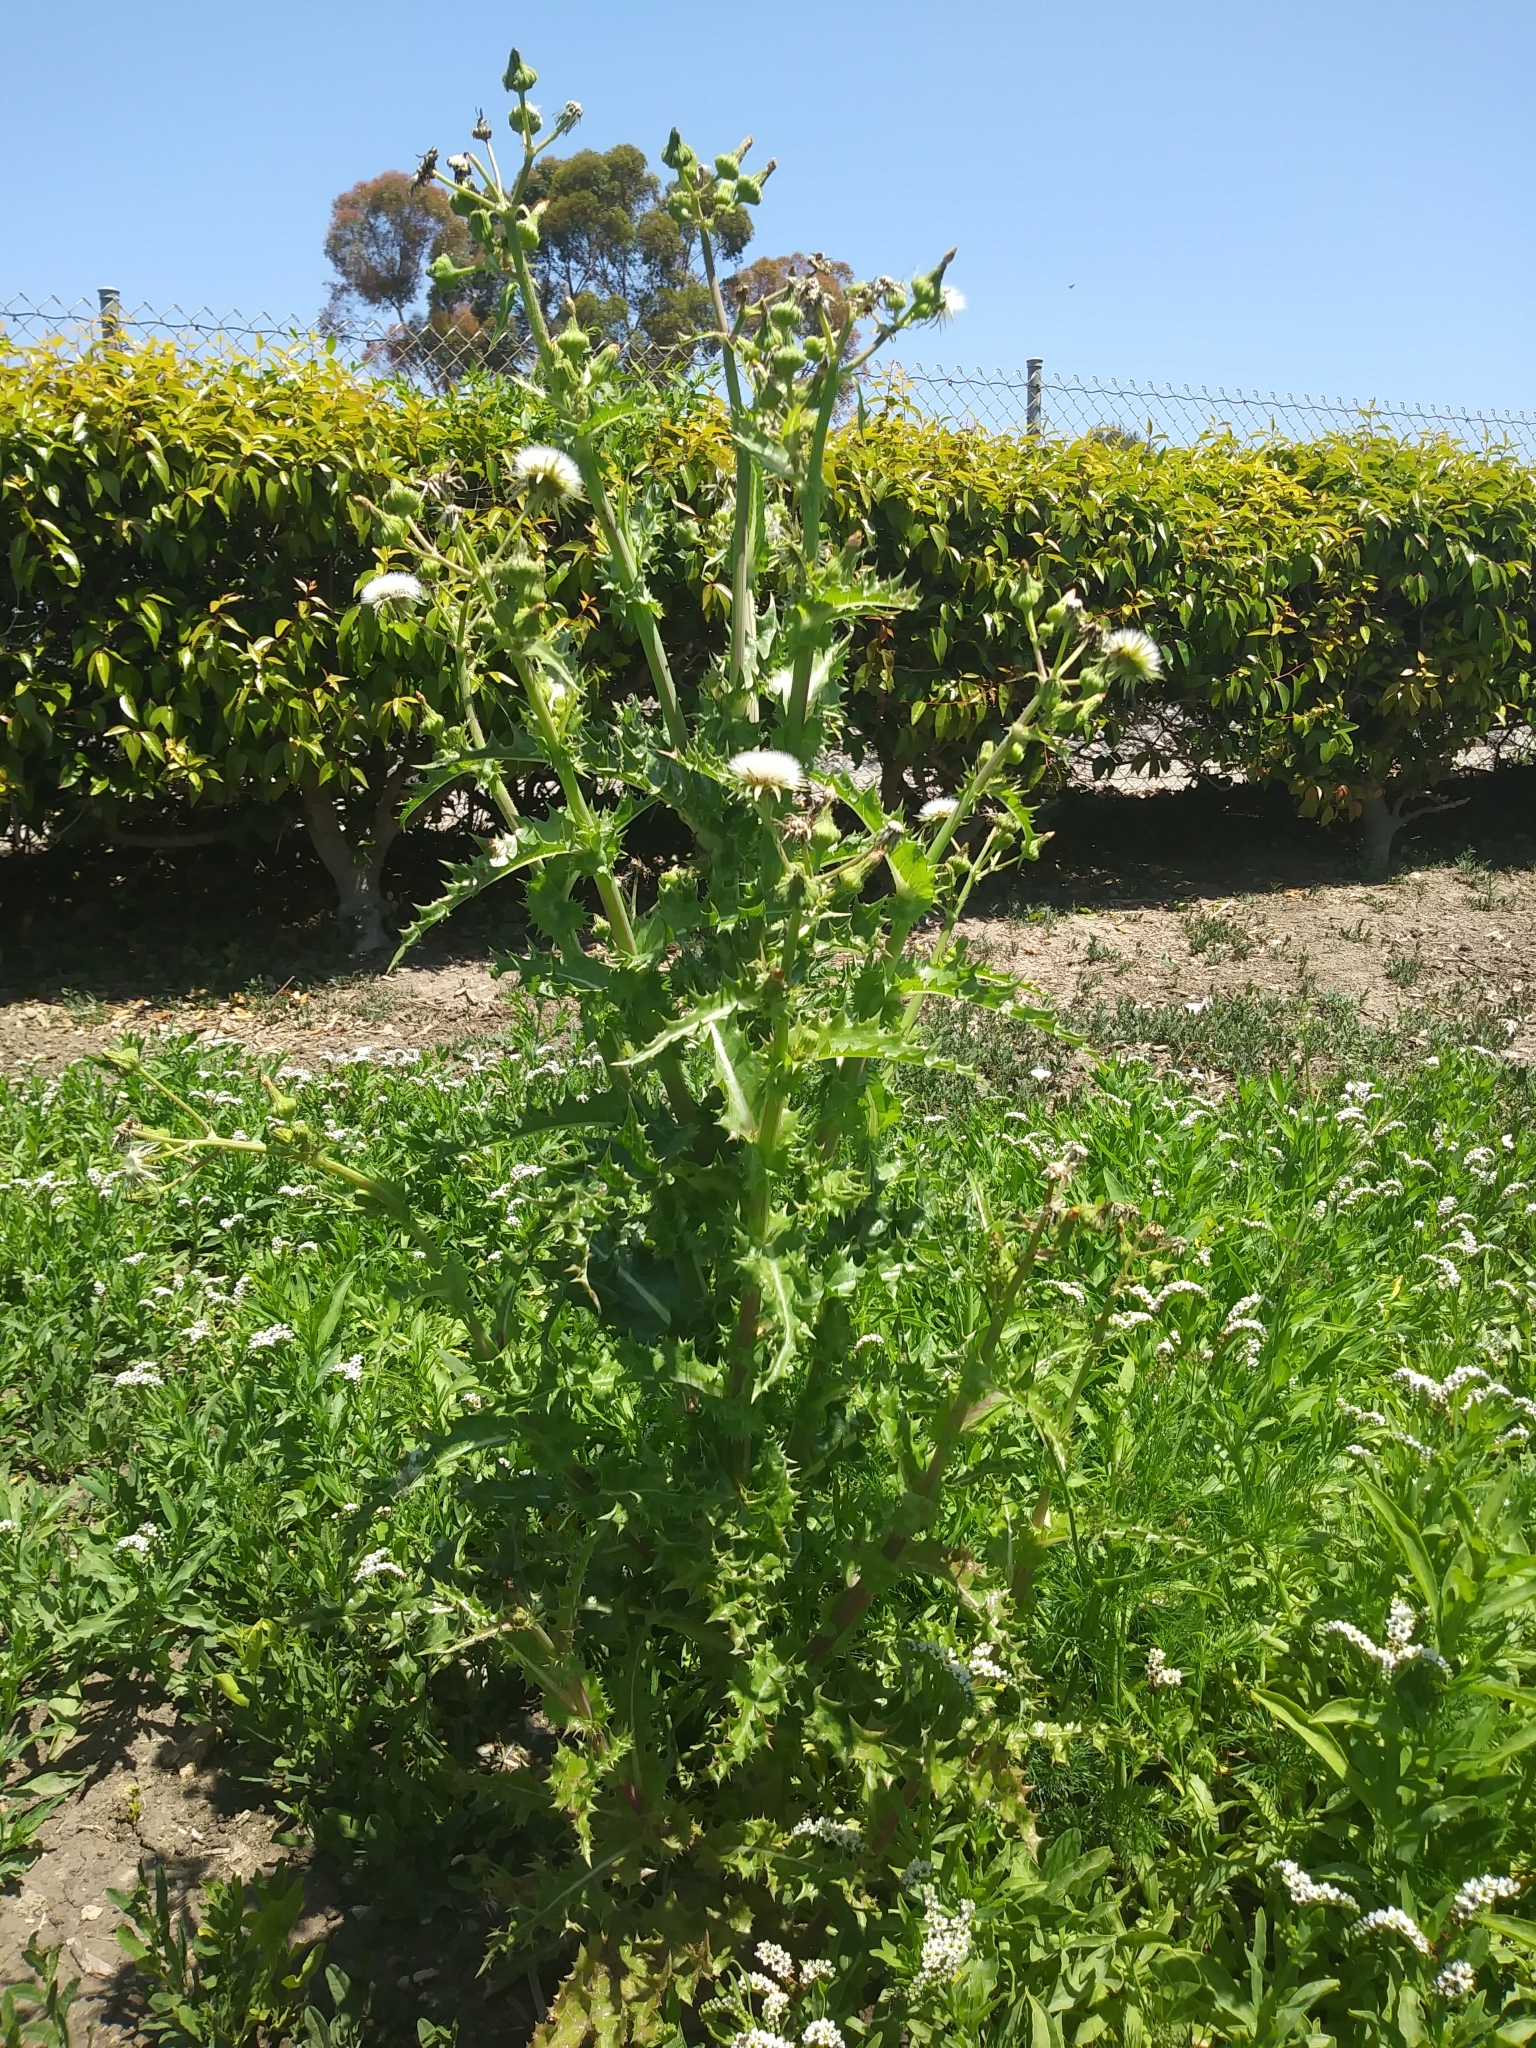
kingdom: Plantae
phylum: Tracheophyta
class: Magnoliopsida
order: Asterales
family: Asteraceae
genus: Sonchus
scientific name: Sonchus asper
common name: Prickly sow-thistle
